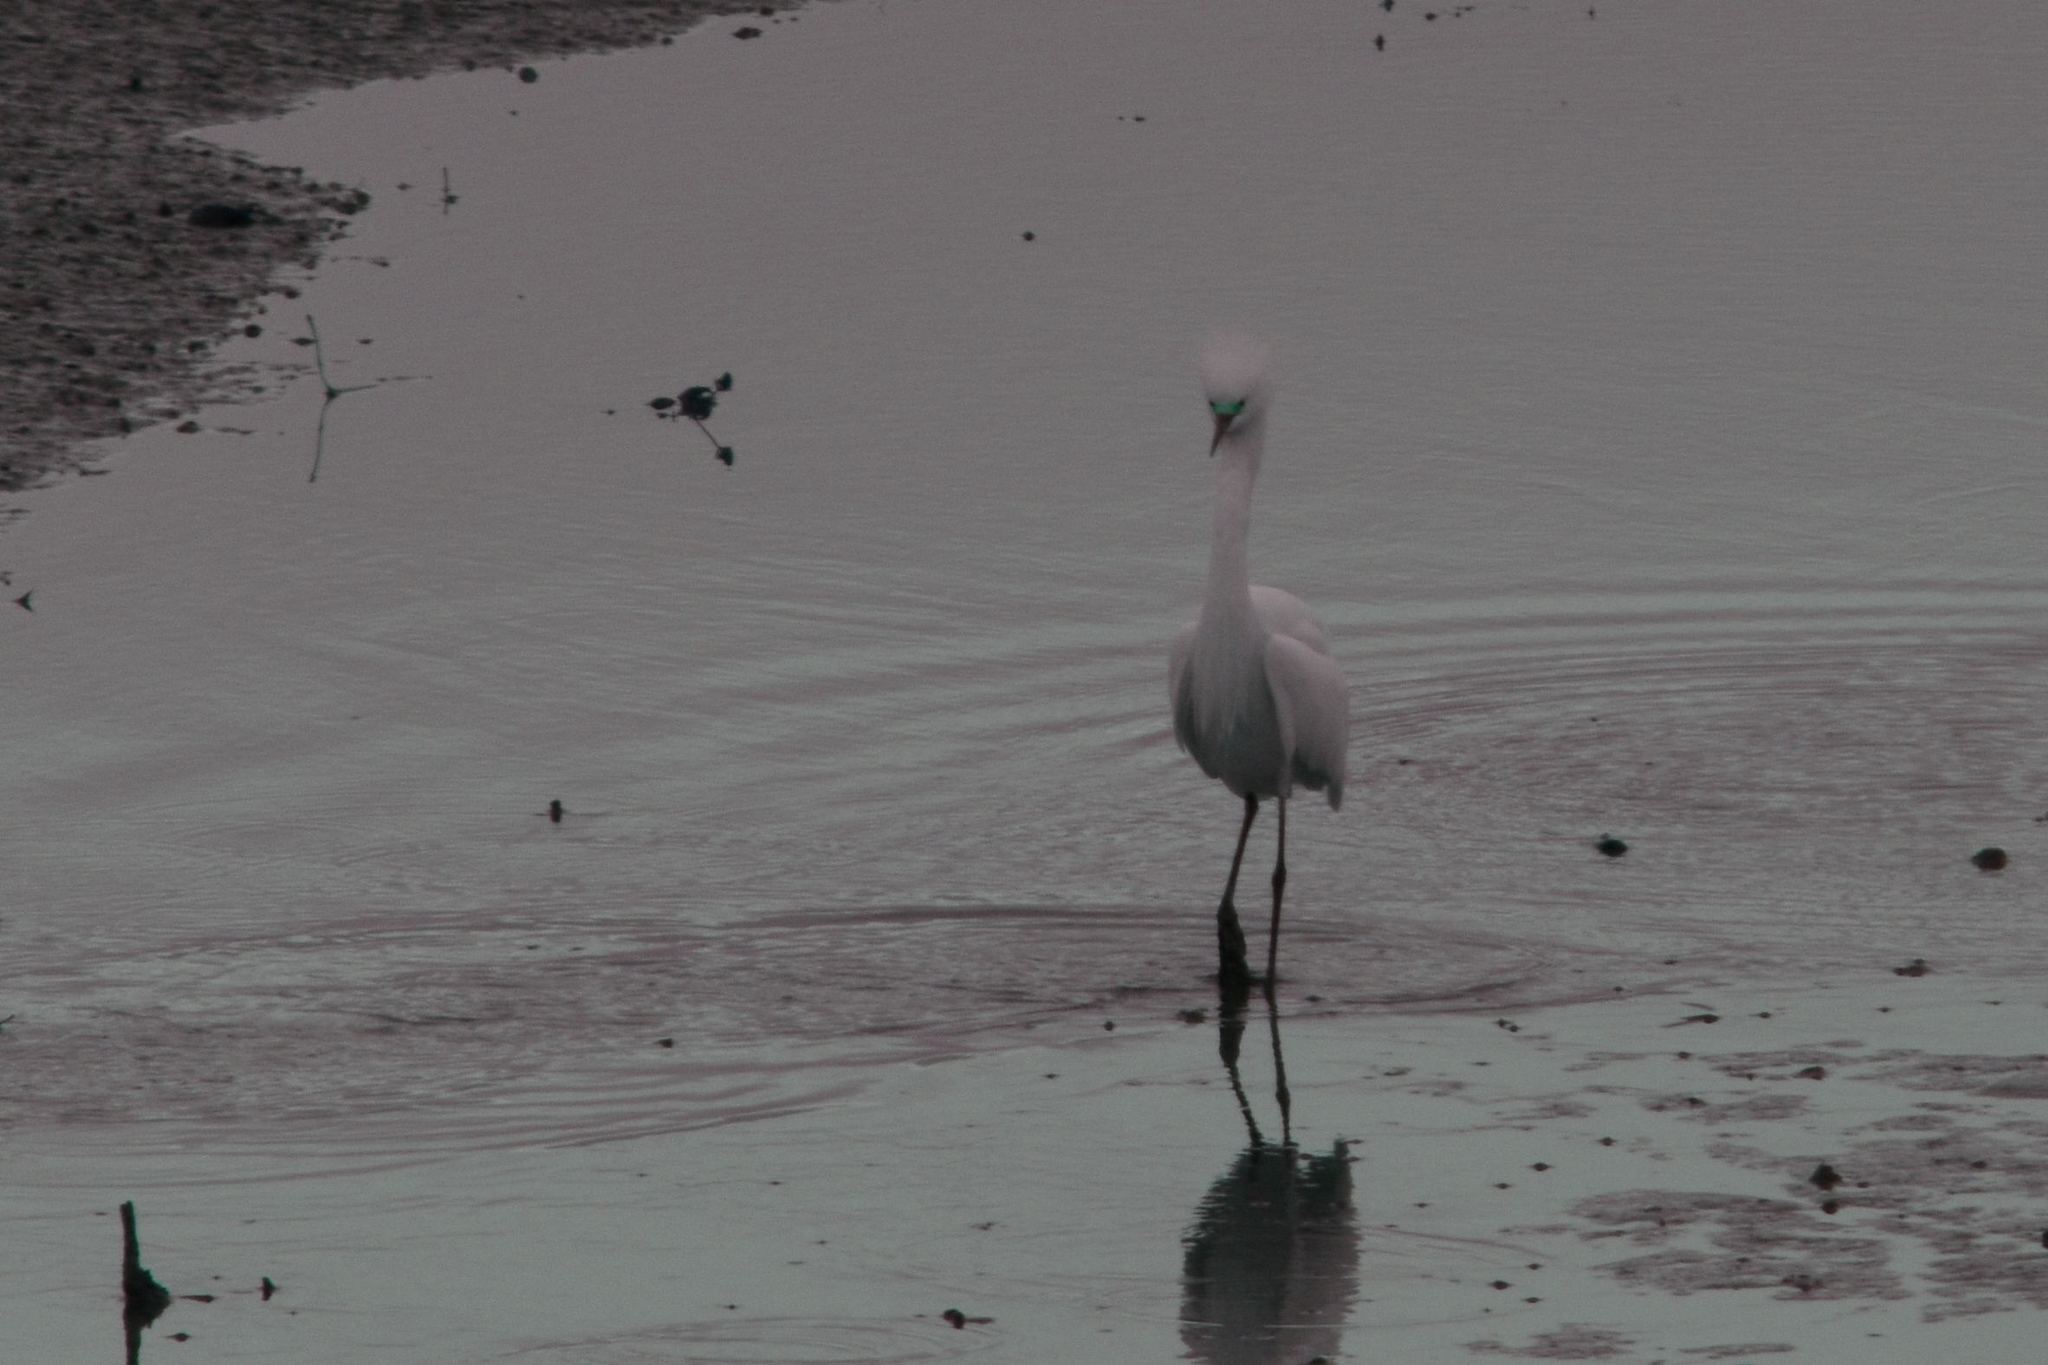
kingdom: Animalia
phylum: Chordata
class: Aves
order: Pelecaniformes
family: Ardeidae
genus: Egretta
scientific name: Egretta thula
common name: Snowy egret
